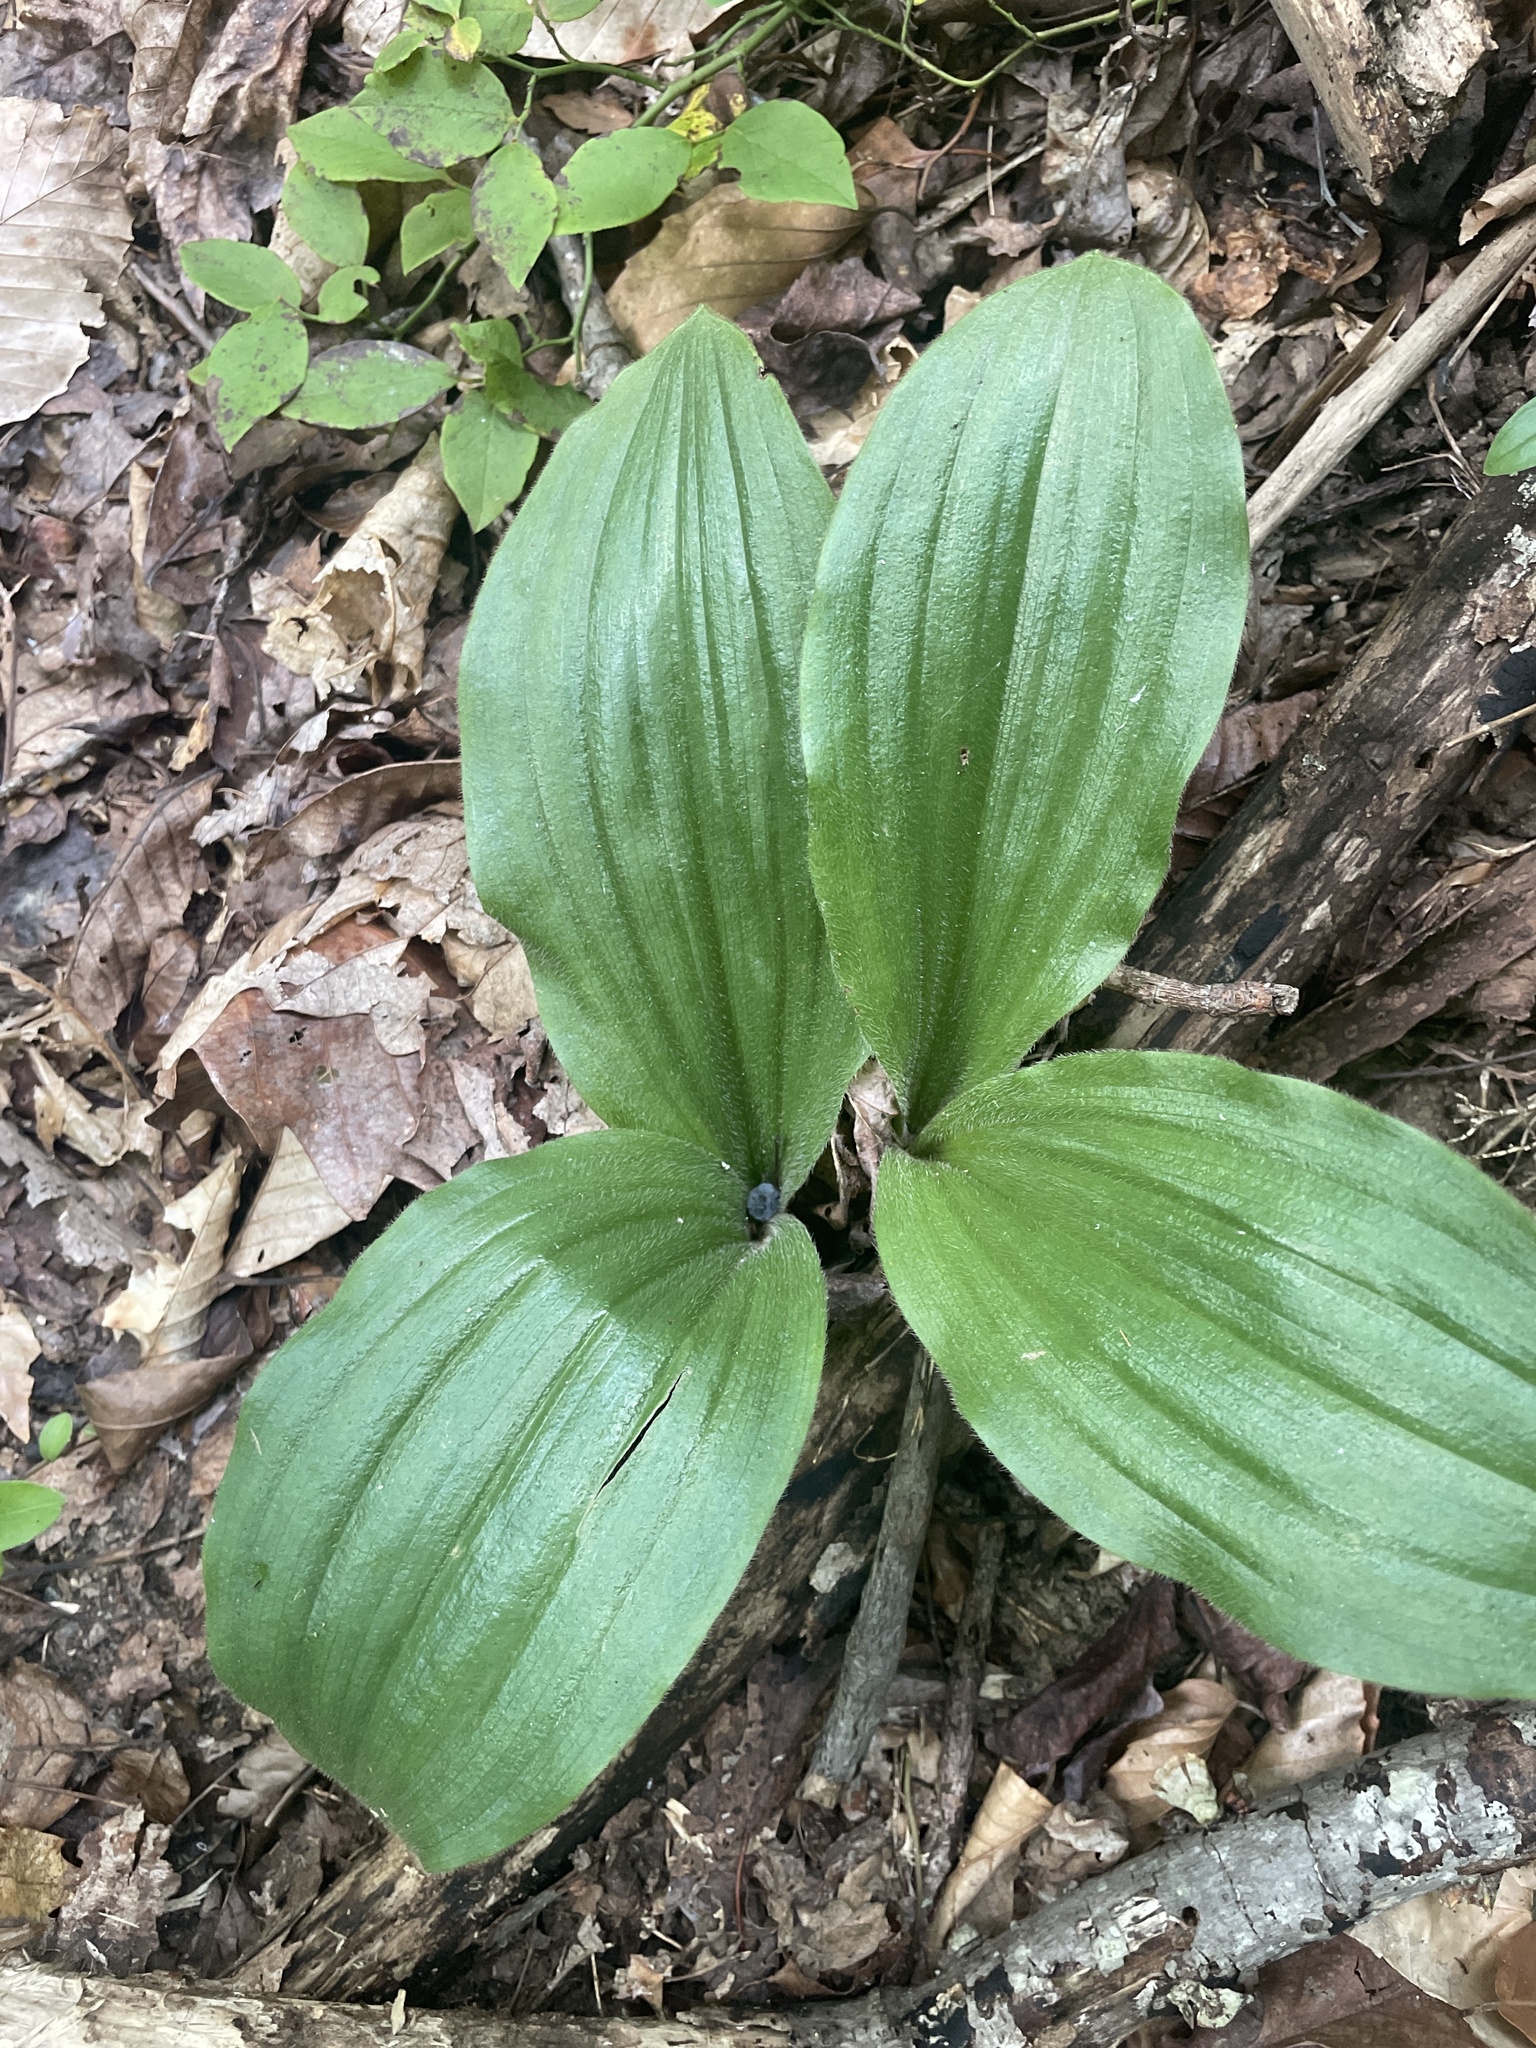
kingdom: Plantae
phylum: Tracheophyta
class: Liliopsida
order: Asparagales
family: Orchidaceae
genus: Cypripedium
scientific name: Cypripedium acaule
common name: Pink lady's-slipper
